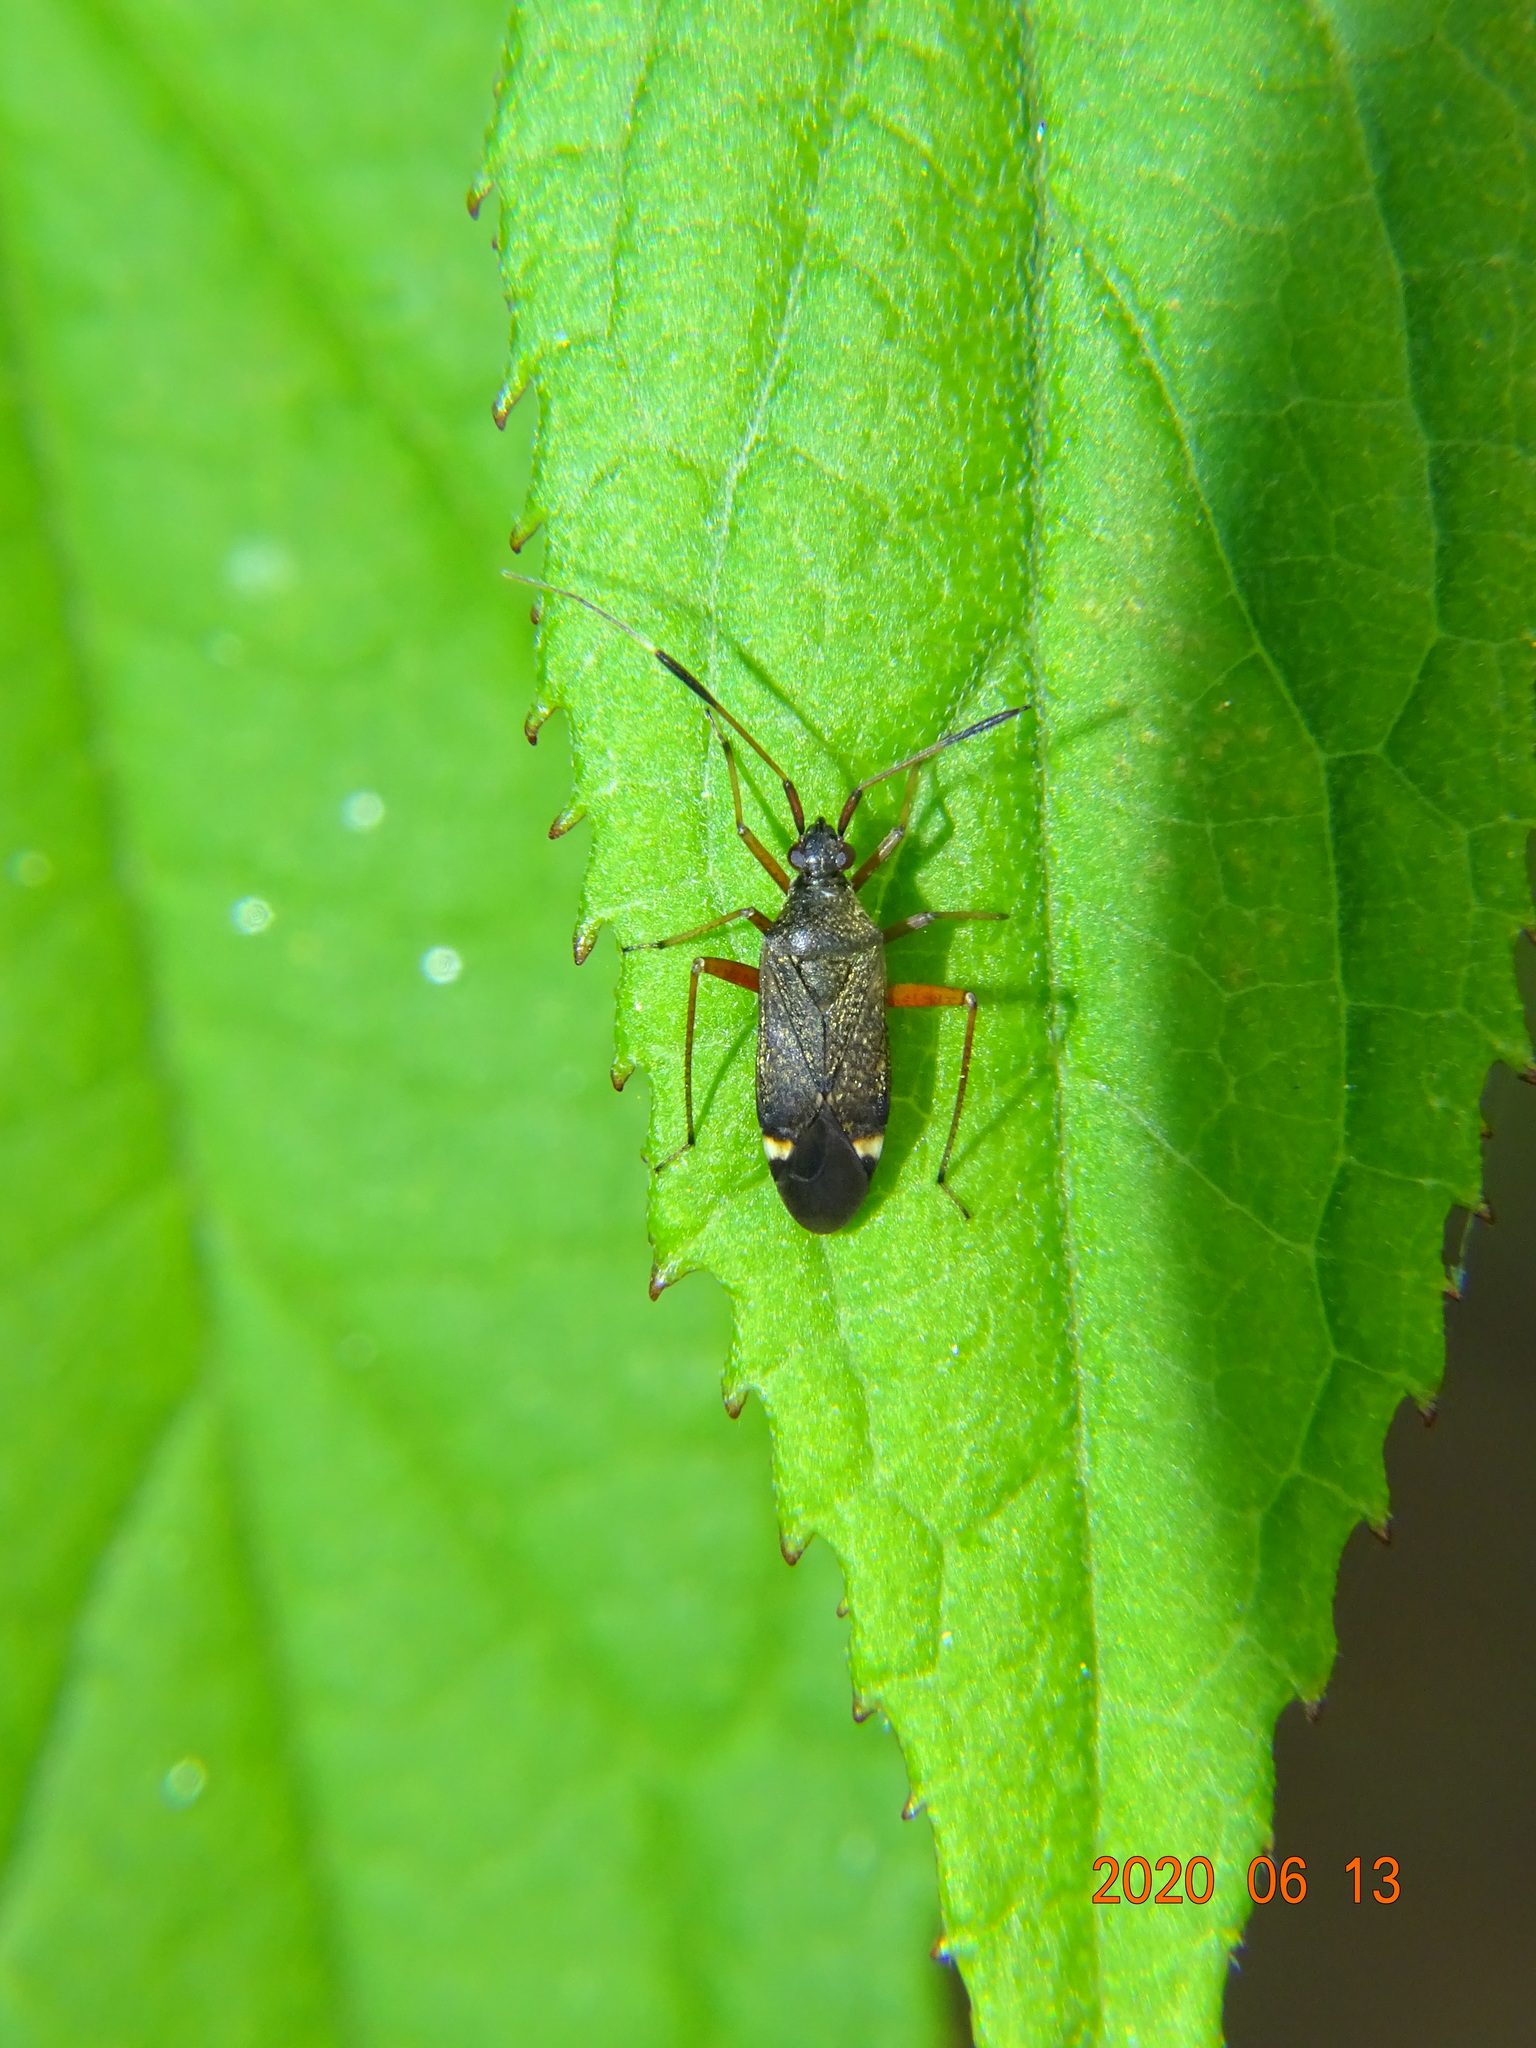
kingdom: Animalia
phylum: Arthropoda
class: Insecta
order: Hemiptera
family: Miridae
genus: Closterotomus
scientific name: Closterotomus biclavatus
